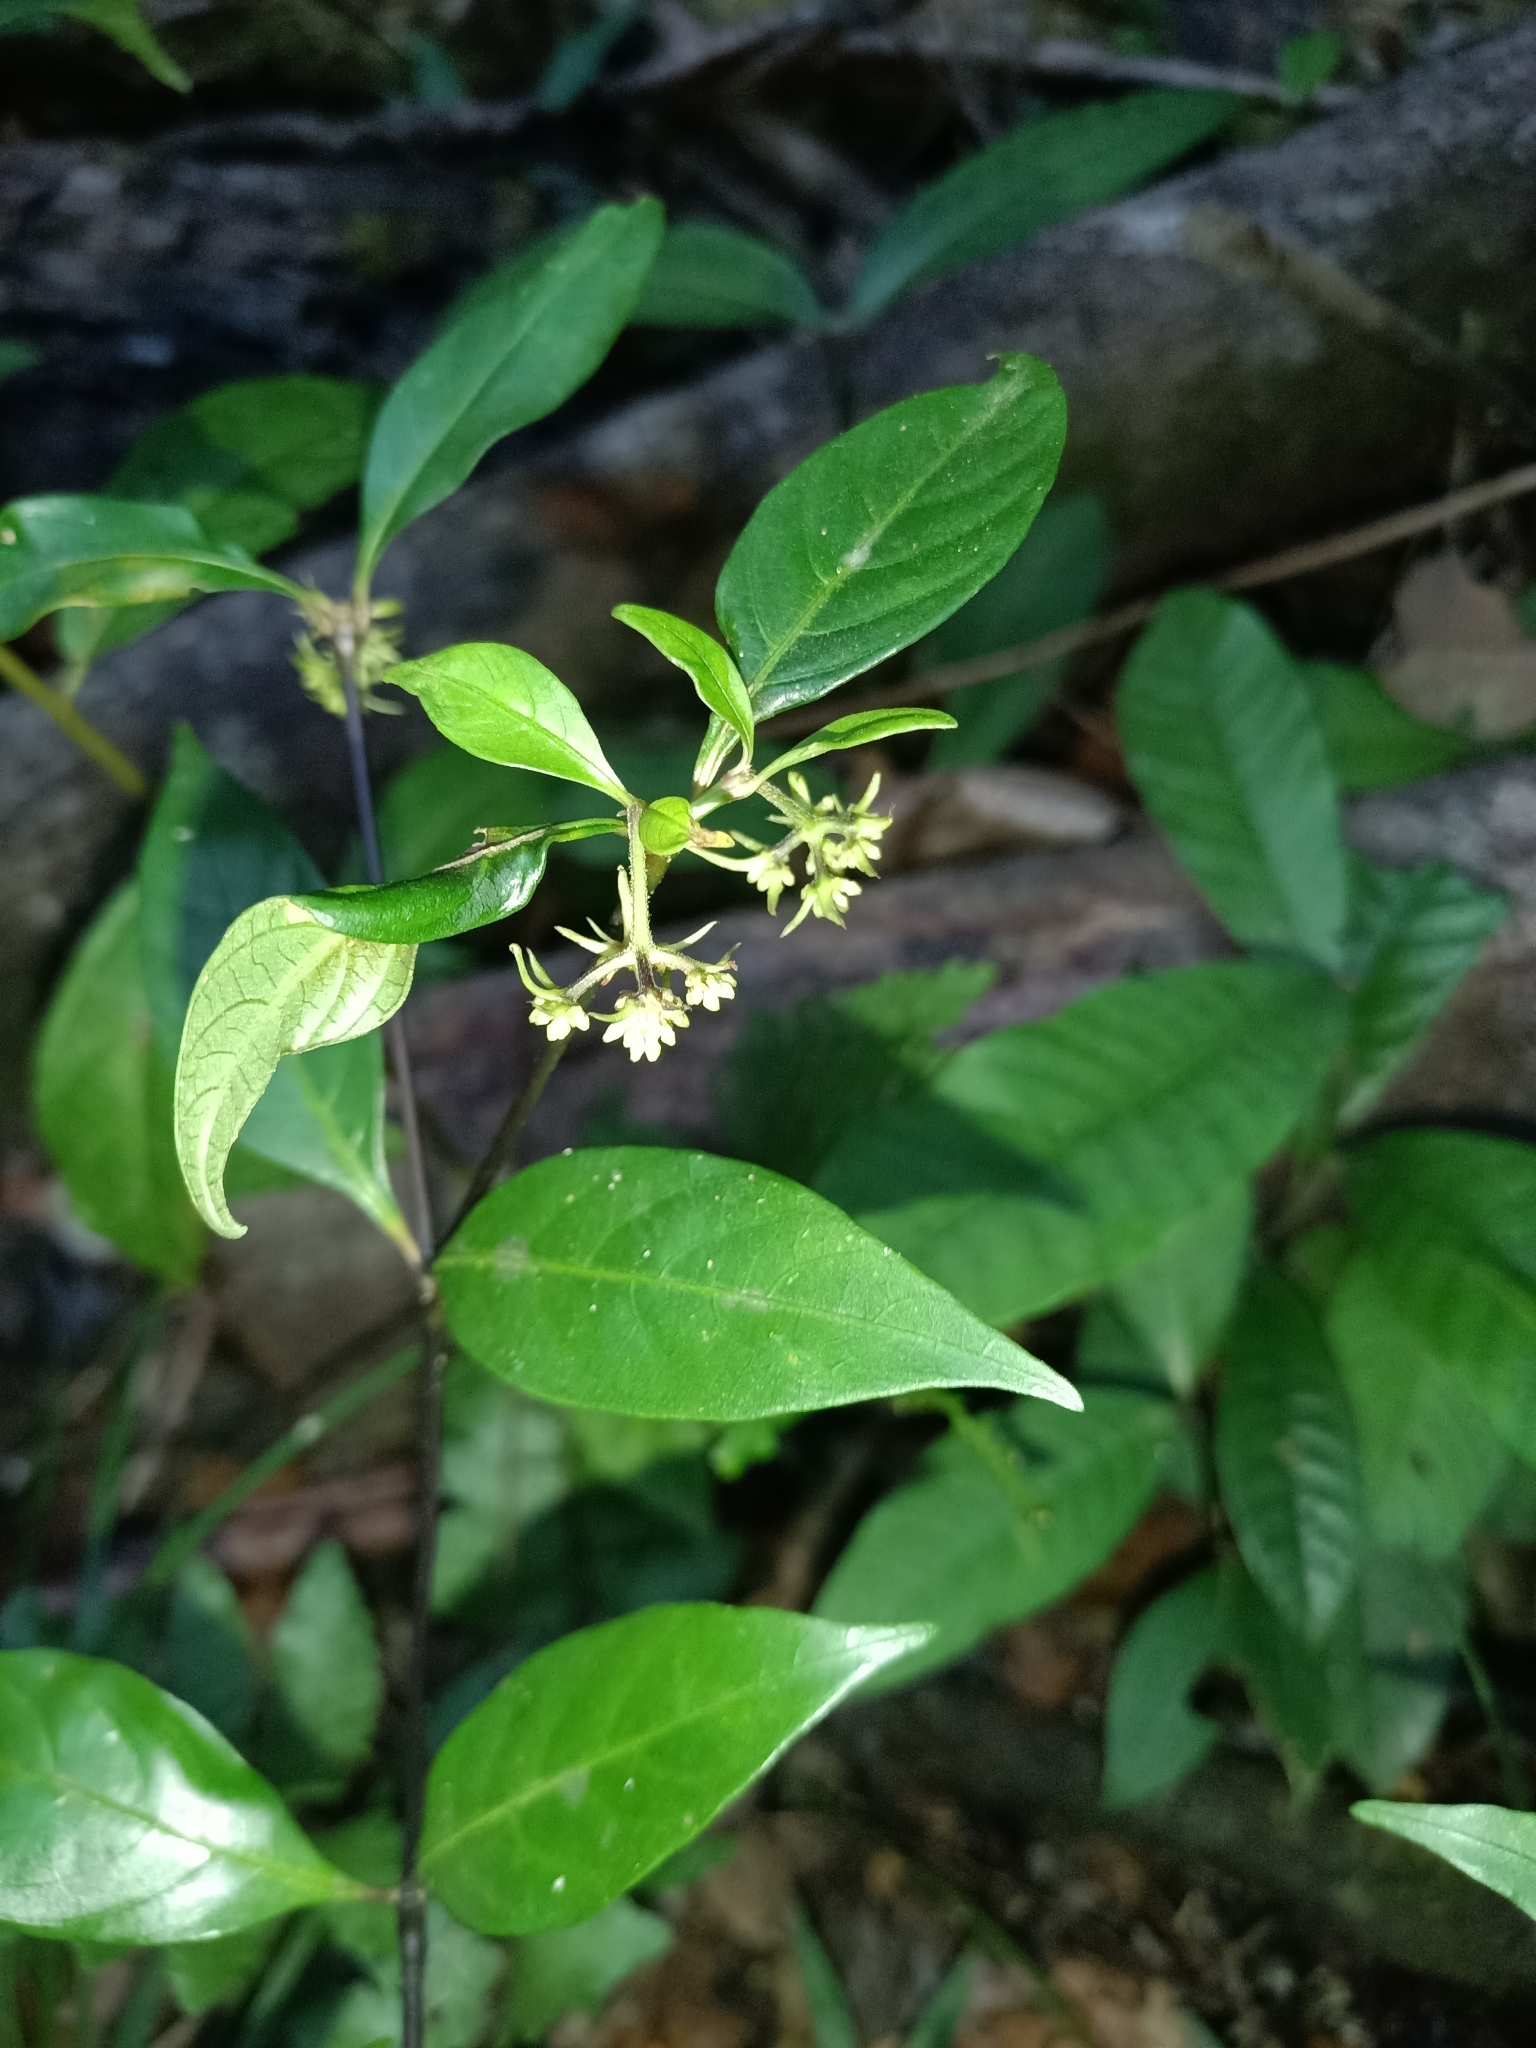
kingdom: Plantae
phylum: Tracheophyta
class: Magnoliopsida
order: Gentianales
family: Rubiaceae
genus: Palicourea
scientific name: Palicourea hoffmannseggiana
